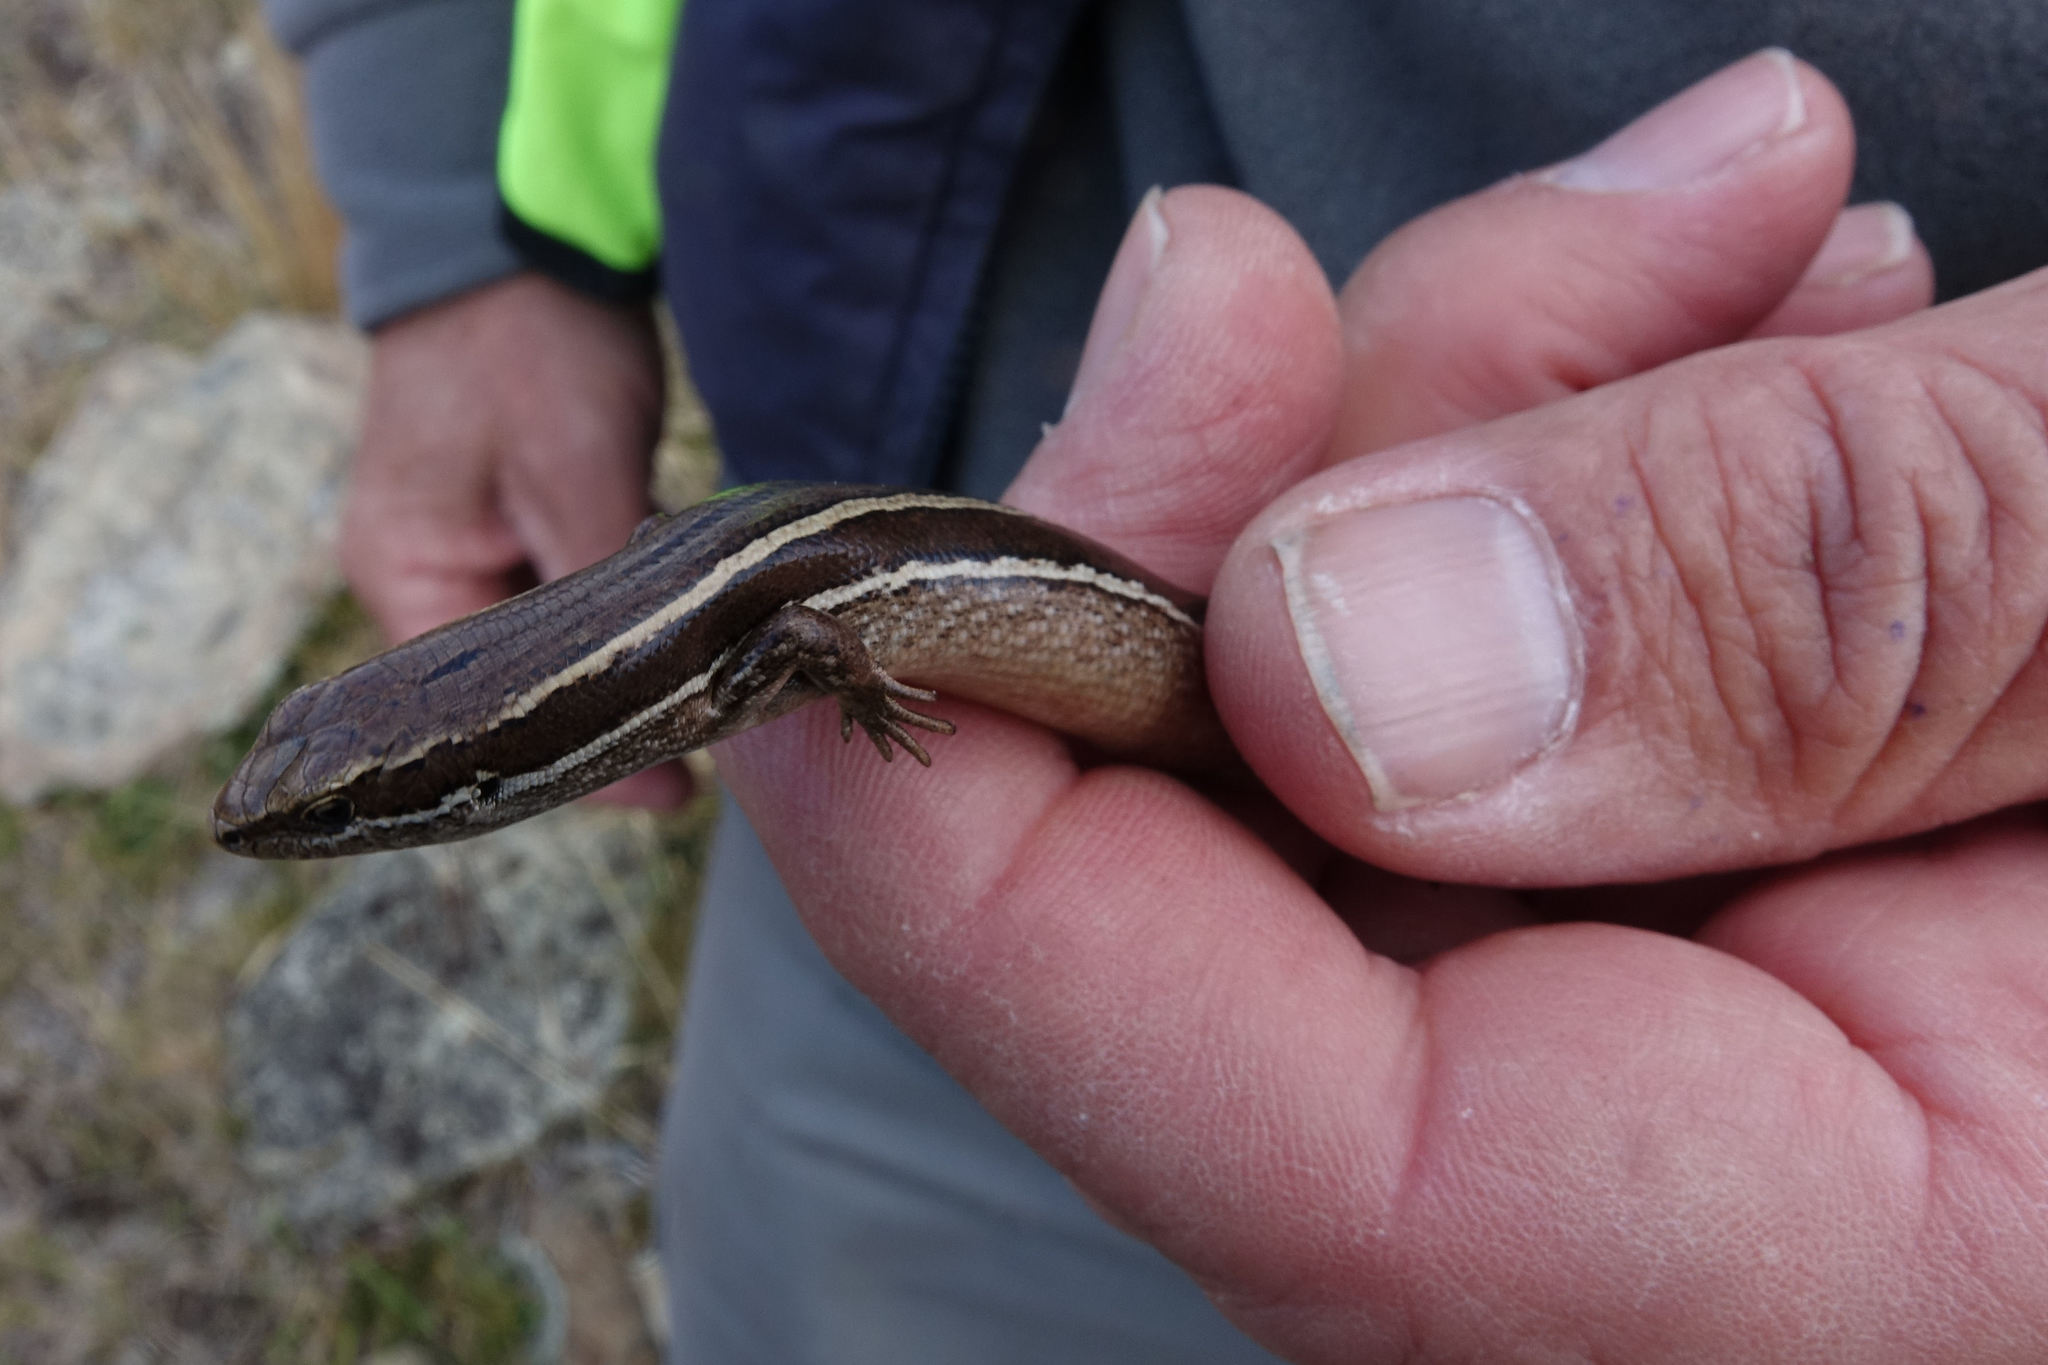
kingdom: Animalia
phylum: Chordata
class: Squamata
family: Scincidae
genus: Oligosoma
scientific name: Oligosoma maccanni
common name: Mccann’s skink
